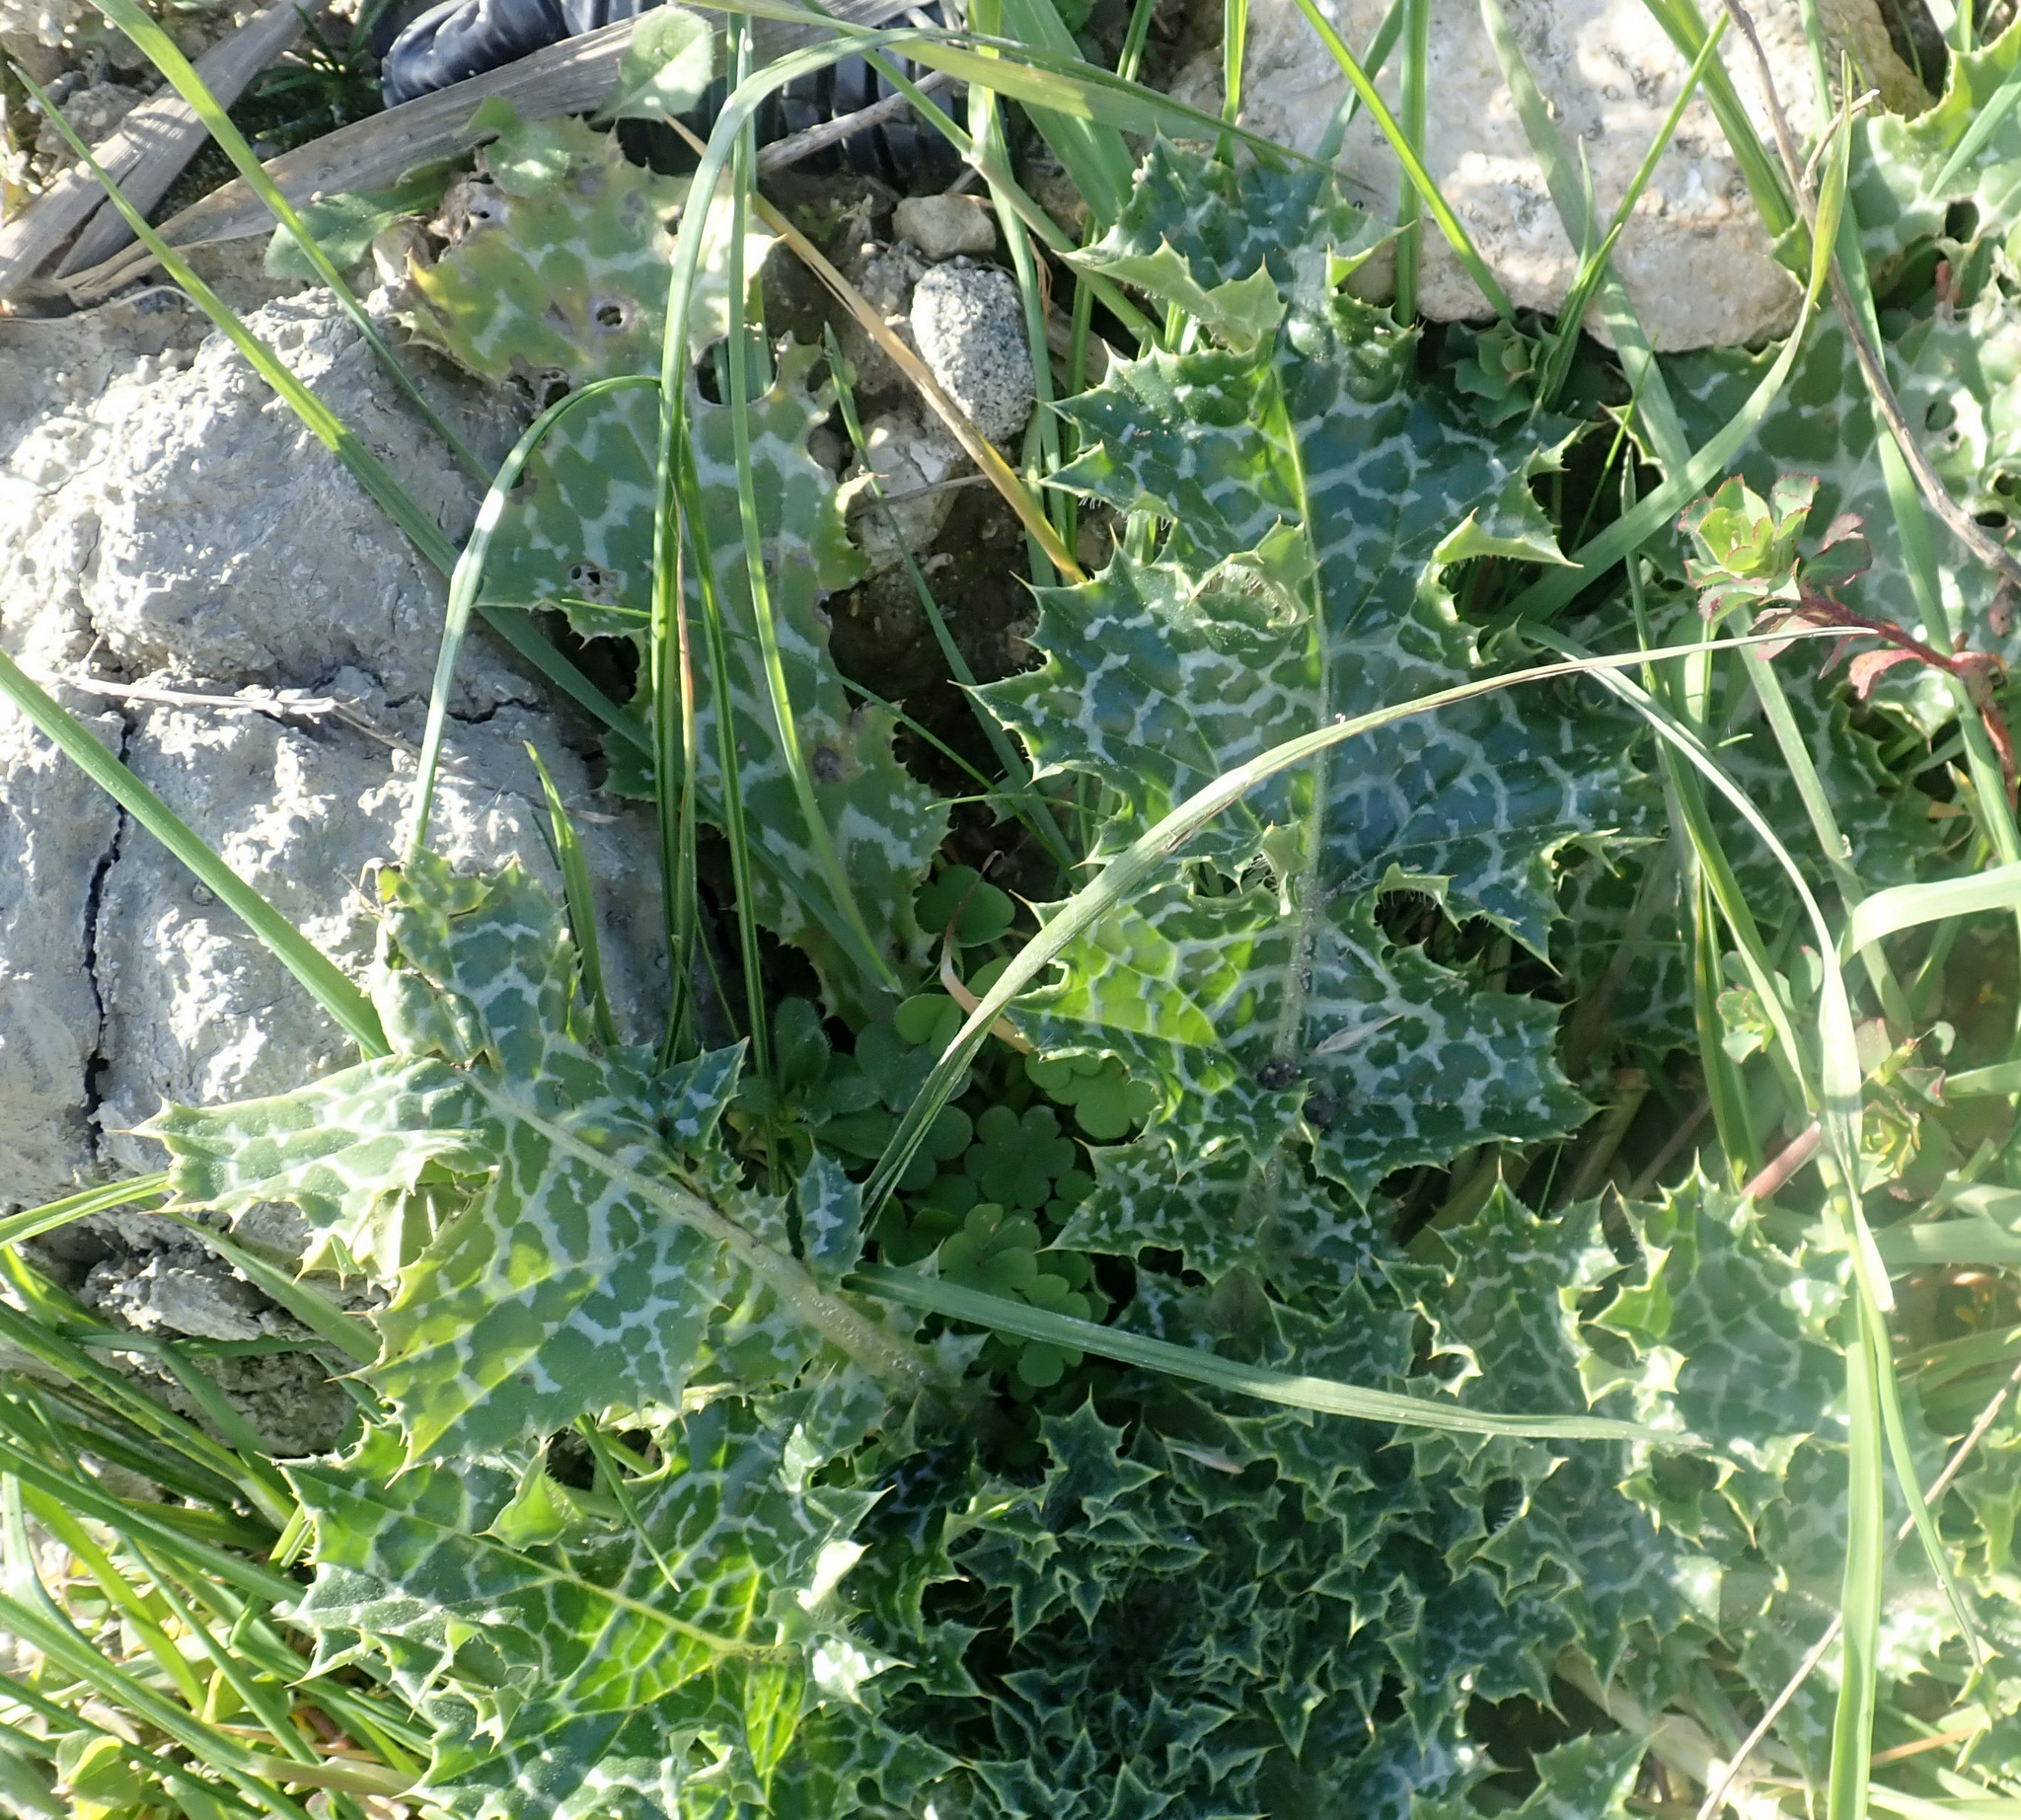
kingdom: Plantae
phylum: Tracheophyta
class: Magnoliopsida
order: Asterales
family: Asteraceae
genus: Silybum
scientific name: Silybum marianum
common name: Milk thistle
